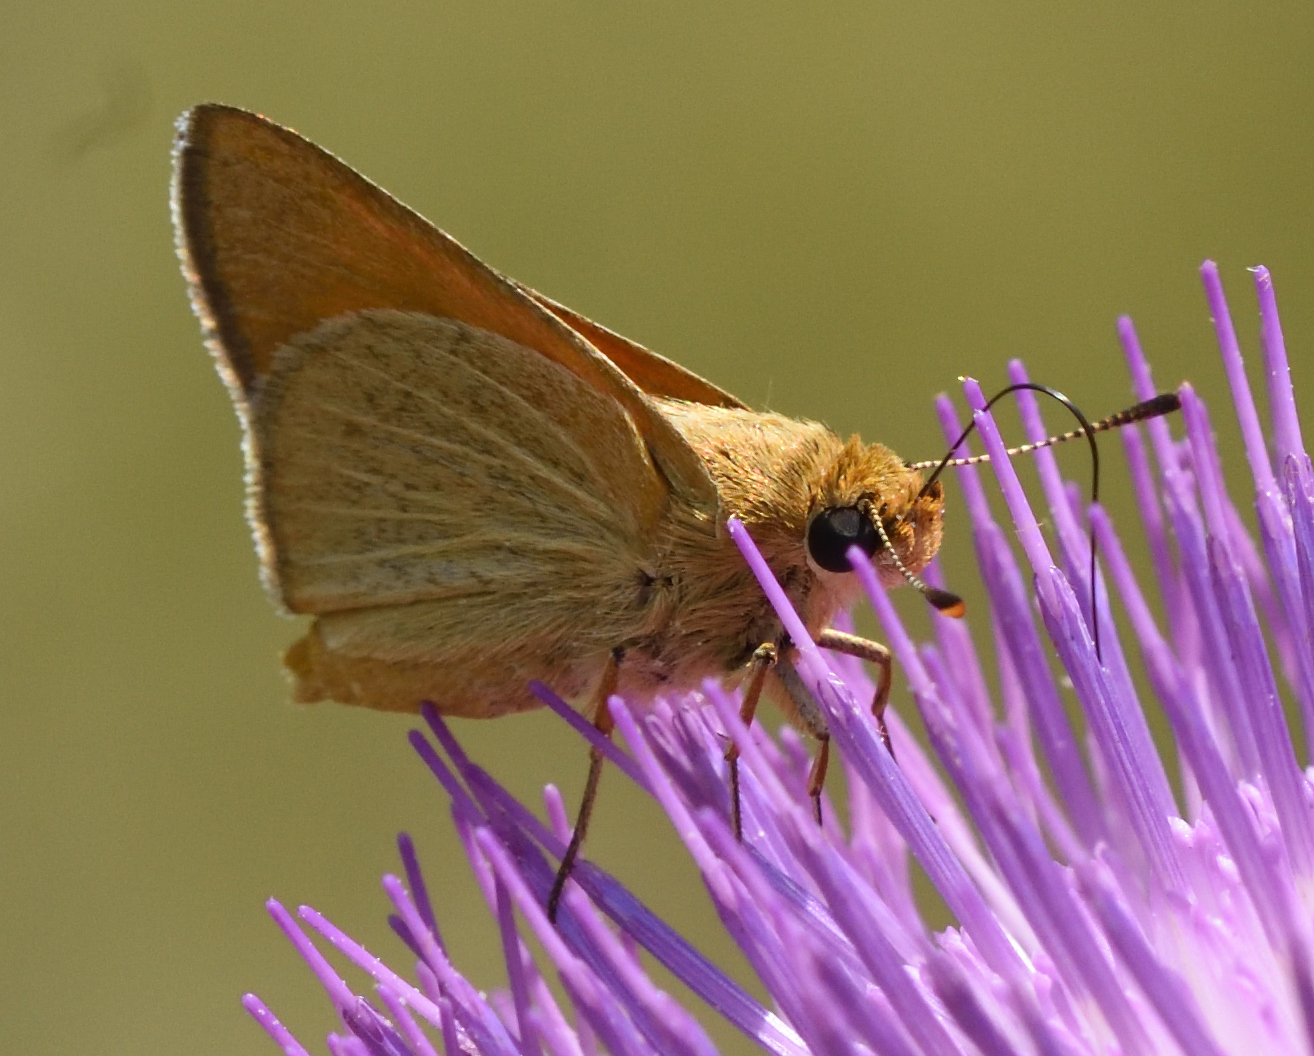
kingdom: Animalia
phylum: Arthropoda
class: Insecta
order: Lepidoptera
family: Hesperiidae
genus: Atrytone
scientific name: Atrytone arogos
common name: Arogos skipper
